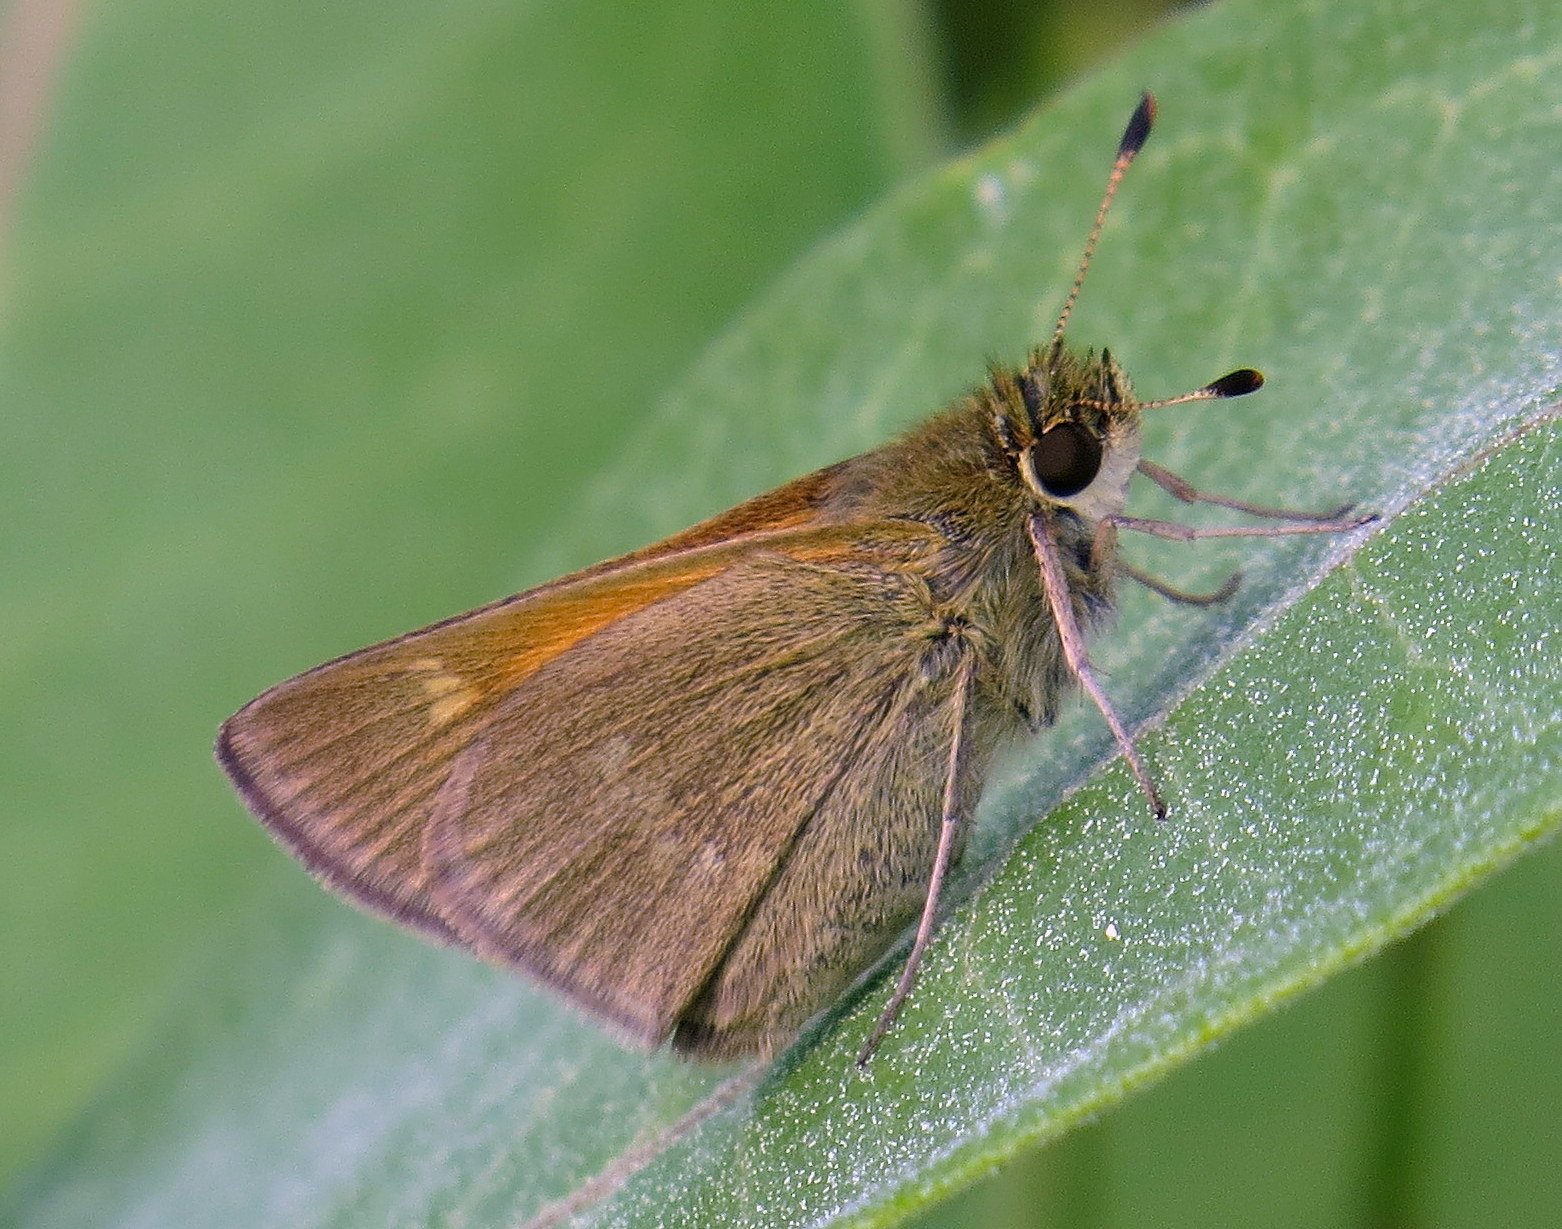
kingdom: Animalia
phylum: Arthropoda
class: Insecta
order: Lepidoptera
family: Hesperiidae
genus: Polites
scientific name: Polites themistocles
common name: Tawny-edged skipper
